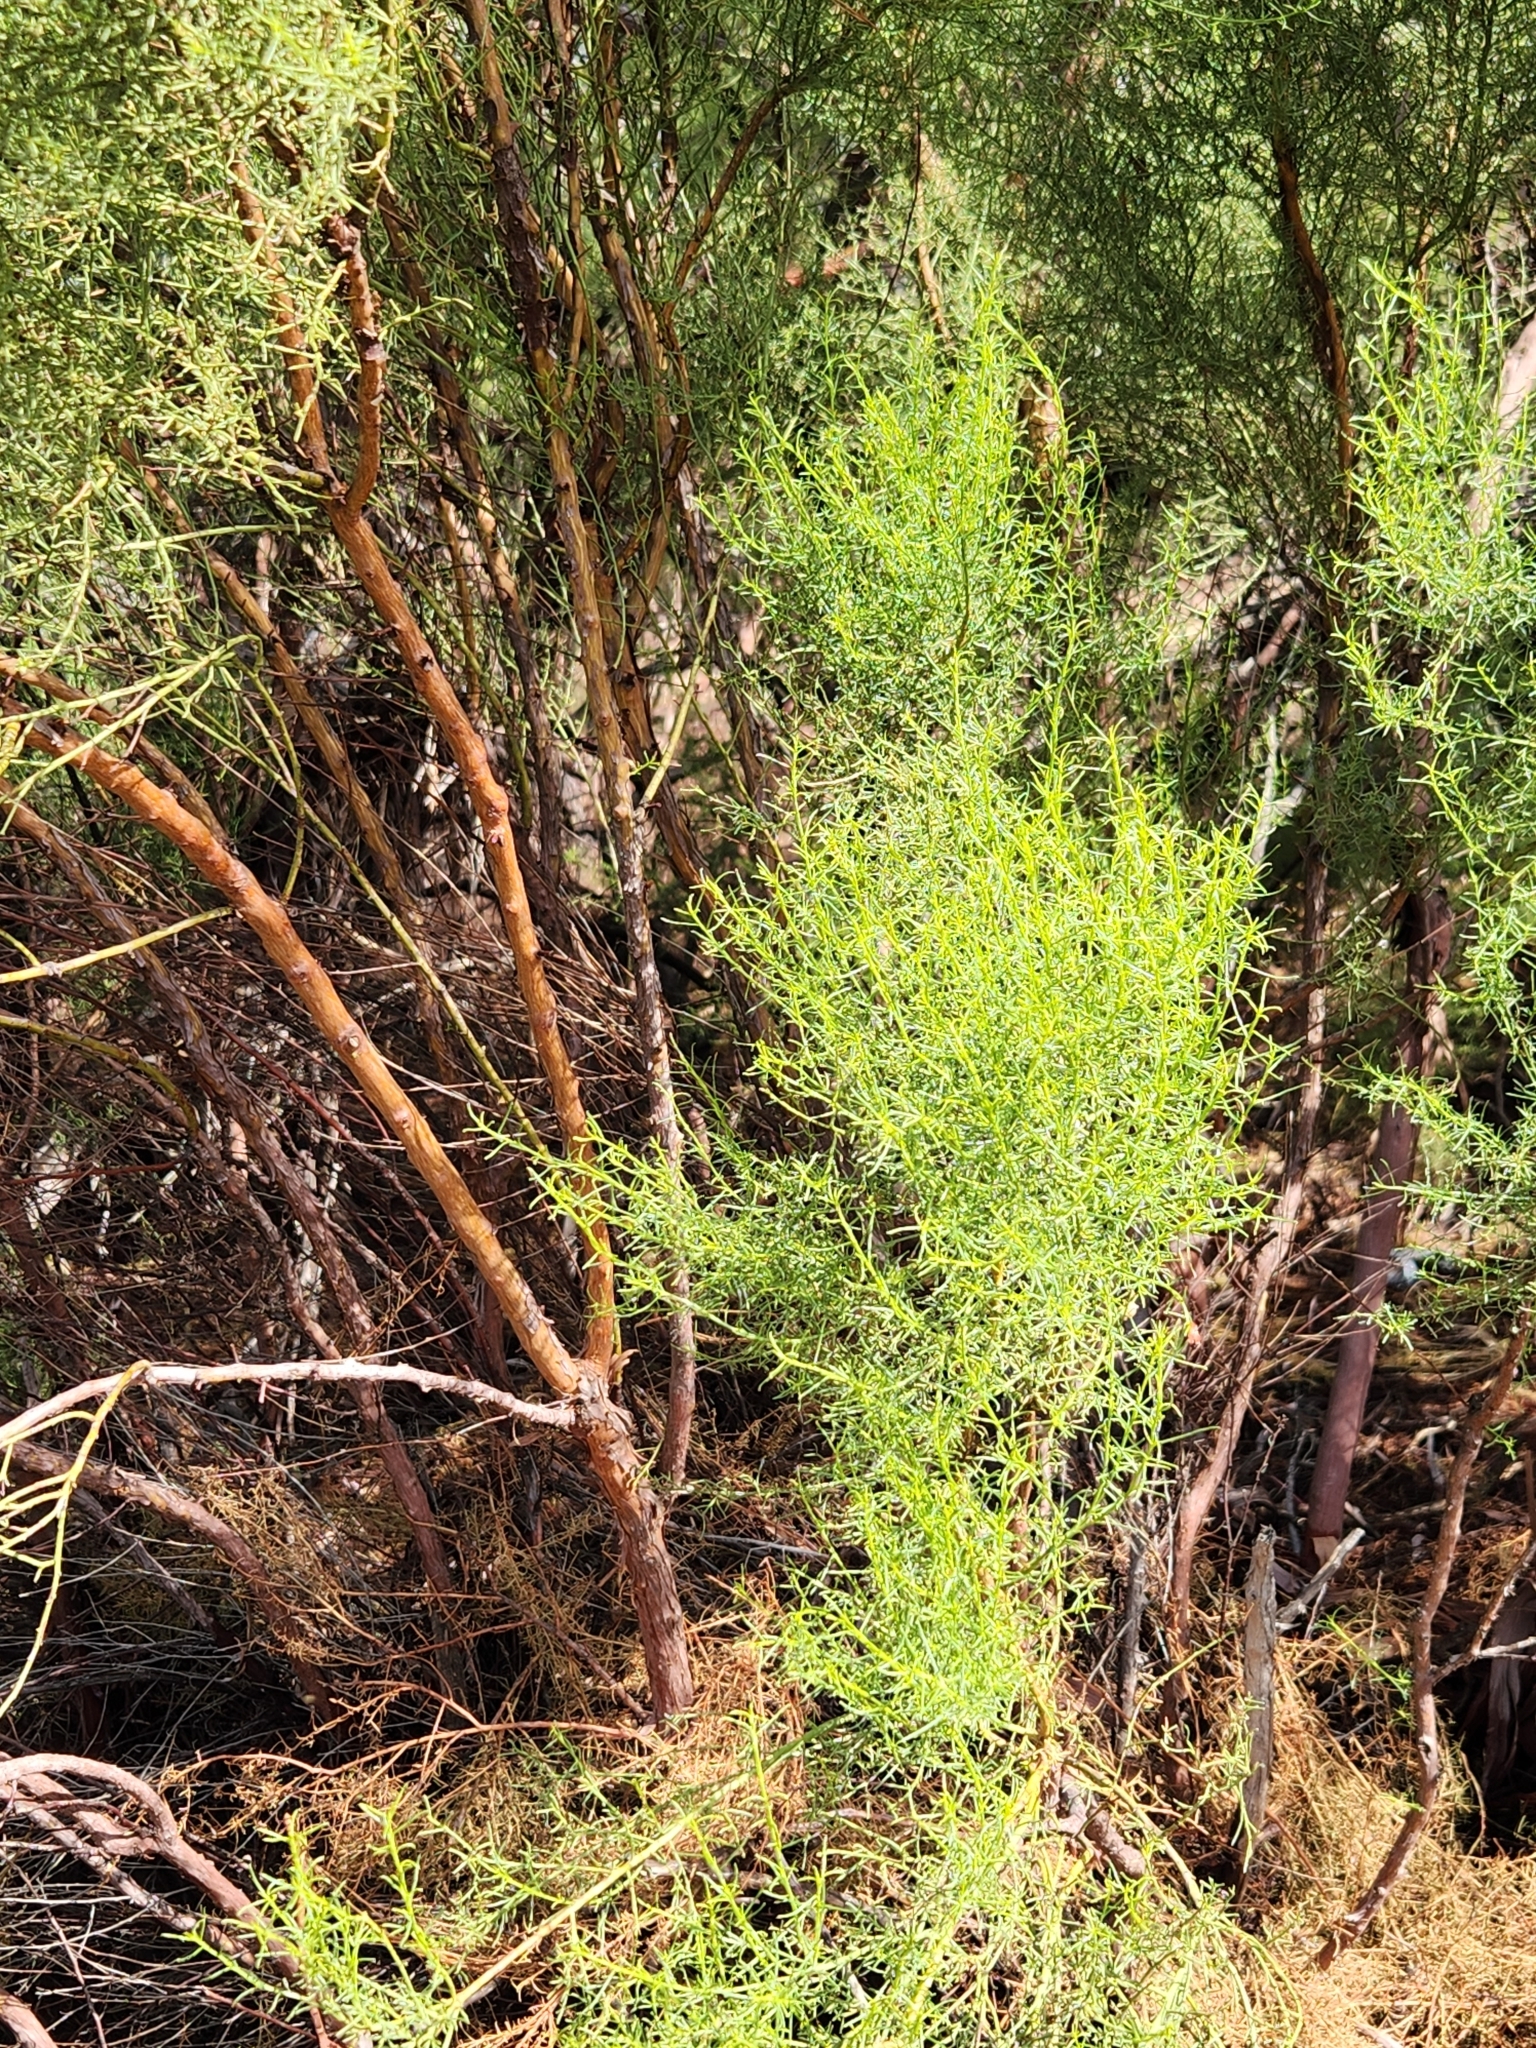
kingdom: Plantae
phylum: Tracheophyta
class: Magnoliopsida
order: Rosales
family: Rosaceae
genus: Adenostoma
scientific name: Adenostoma sparsifolium
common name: Red shank
